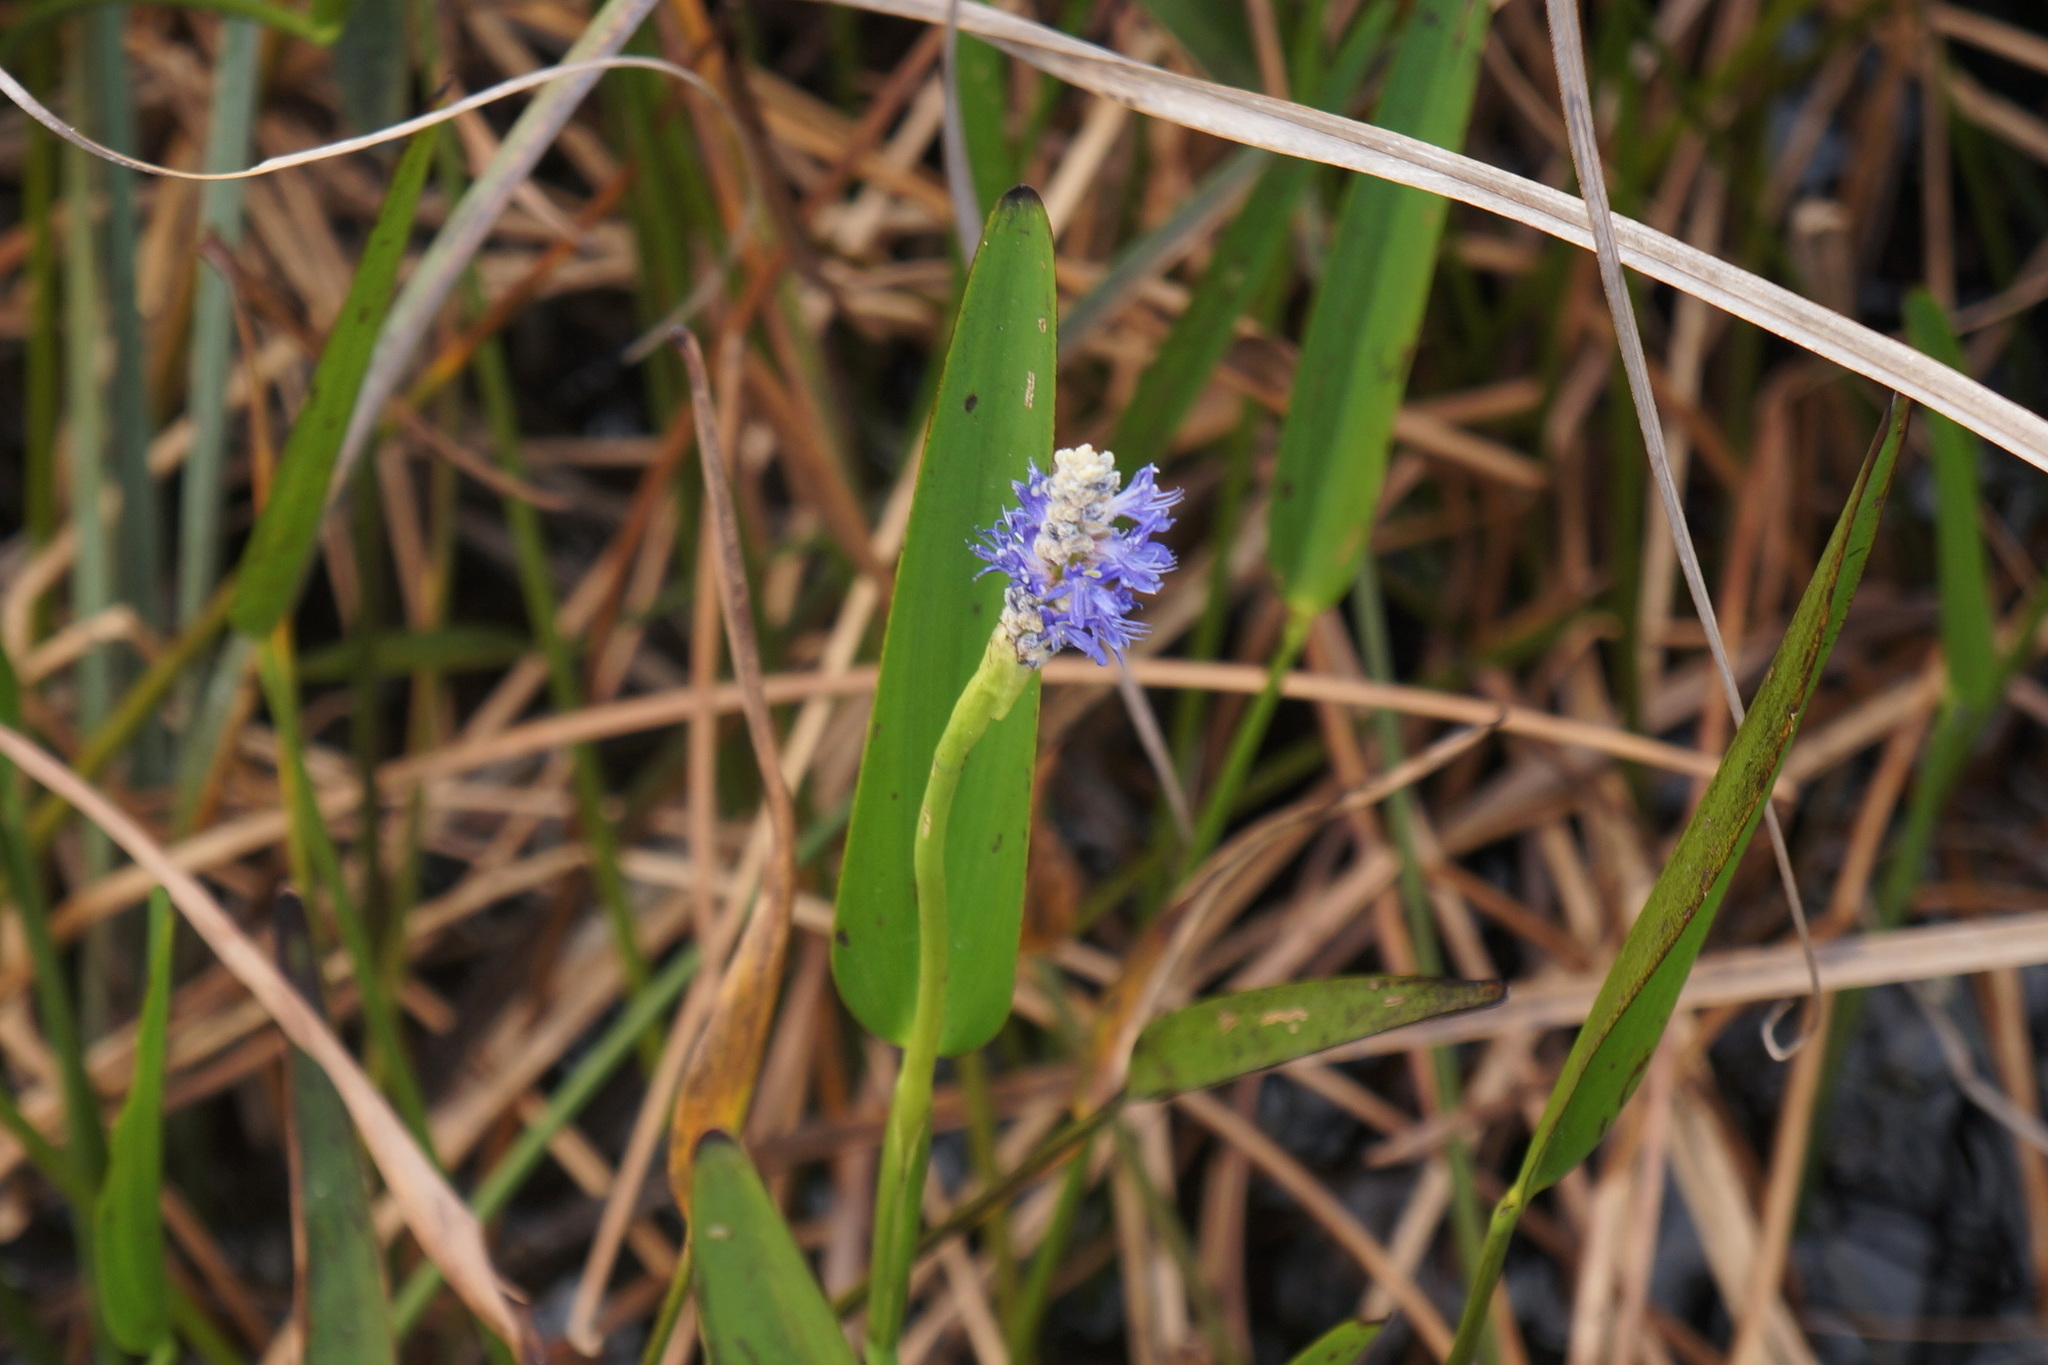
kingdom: Plantae
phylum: Tracheophyta
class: Liliopsida
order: Commelinales
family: Pontederiaceae
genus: Pontederia
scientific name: Pontederia cordata
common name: Pickerelweed
